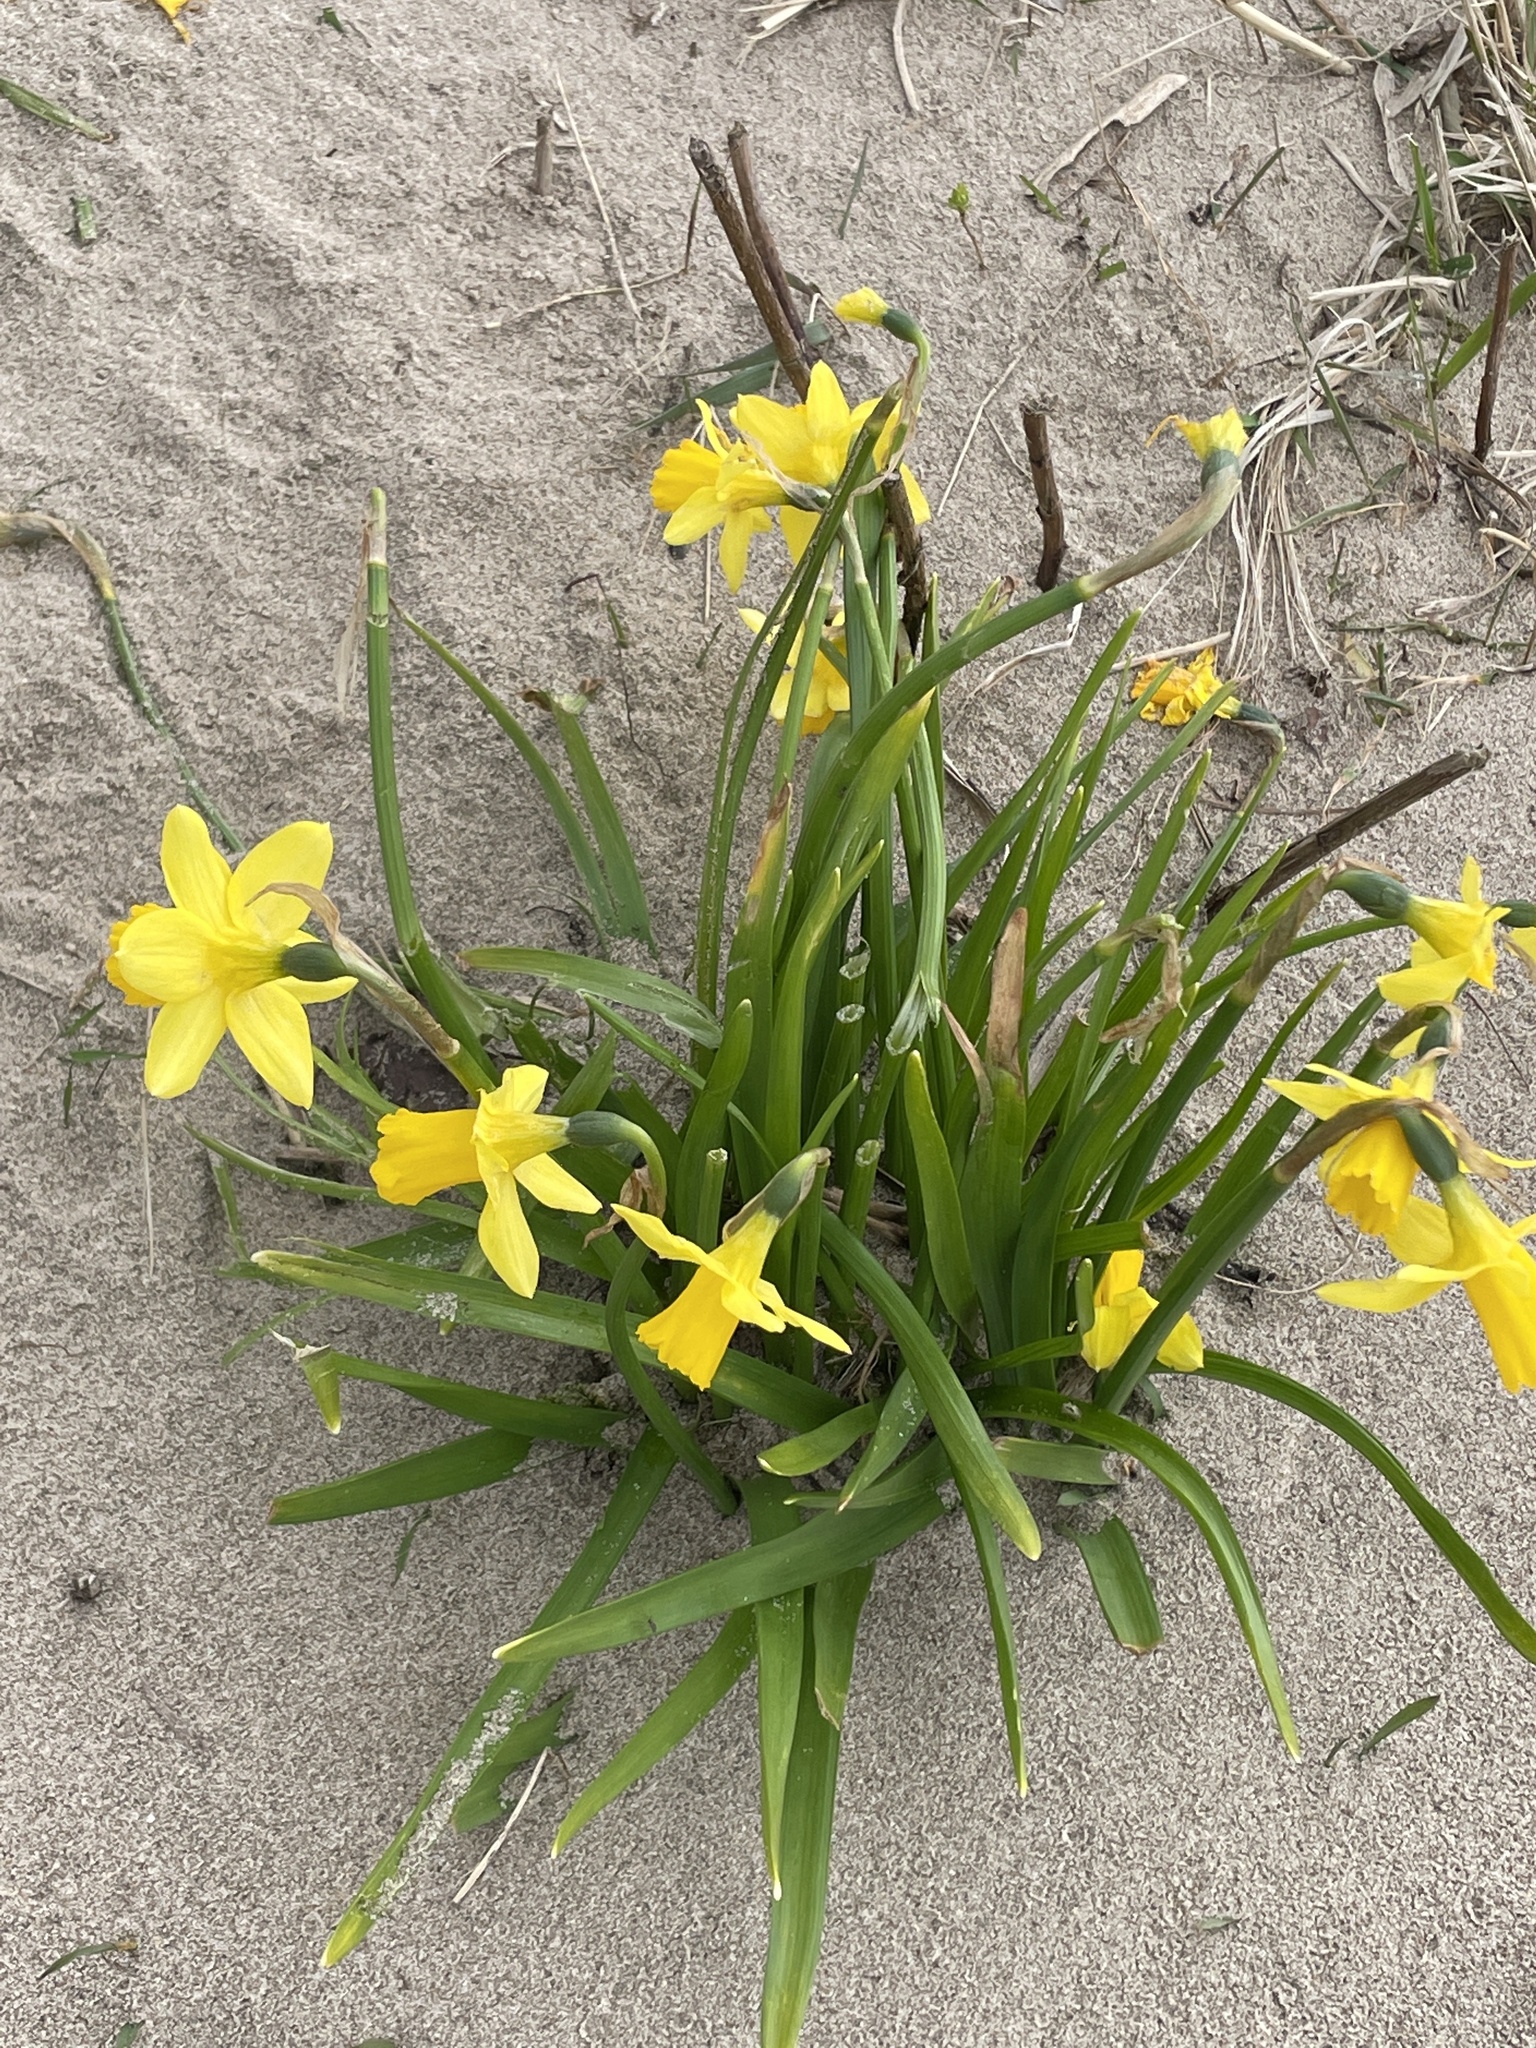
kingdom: Plantae
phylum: Tracheophyta
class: Liliopsida
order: Asparagales
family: Amaryllidaceae
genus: Narcissus
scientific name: Narcissus cyclazetta
